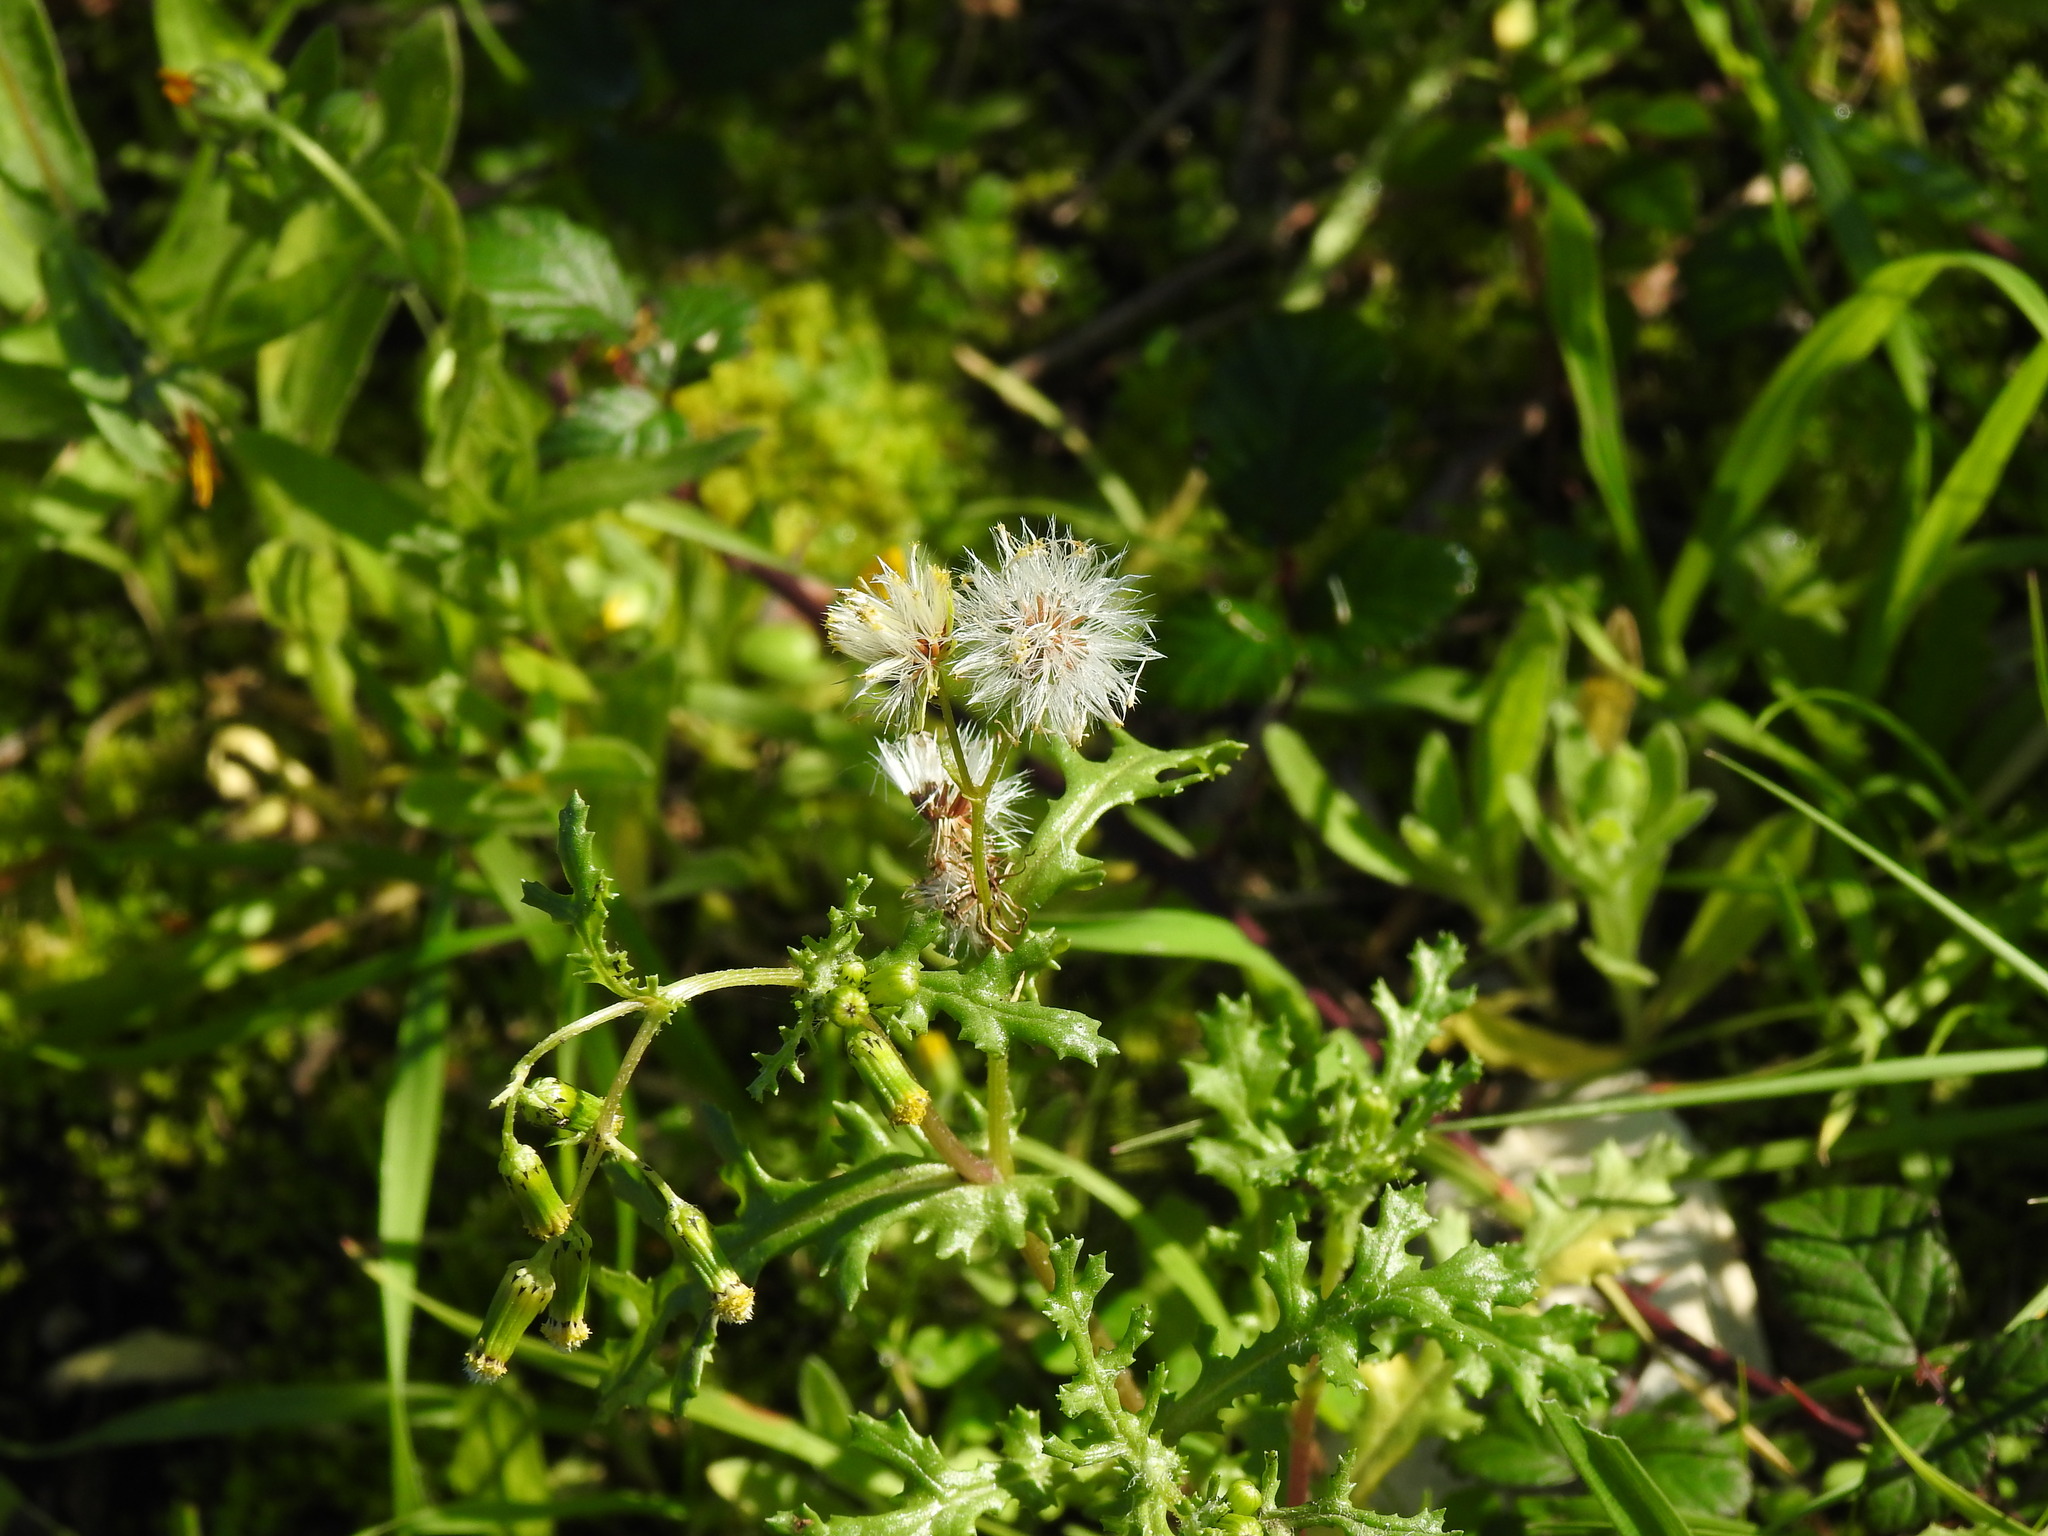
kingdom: Plantae
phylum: Tracheophyta
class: Magnoliopsida
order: Asterales
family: Asteraceae
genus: Senecio
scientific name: Senecio vulgaris
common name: Old-man-in-the-spring
